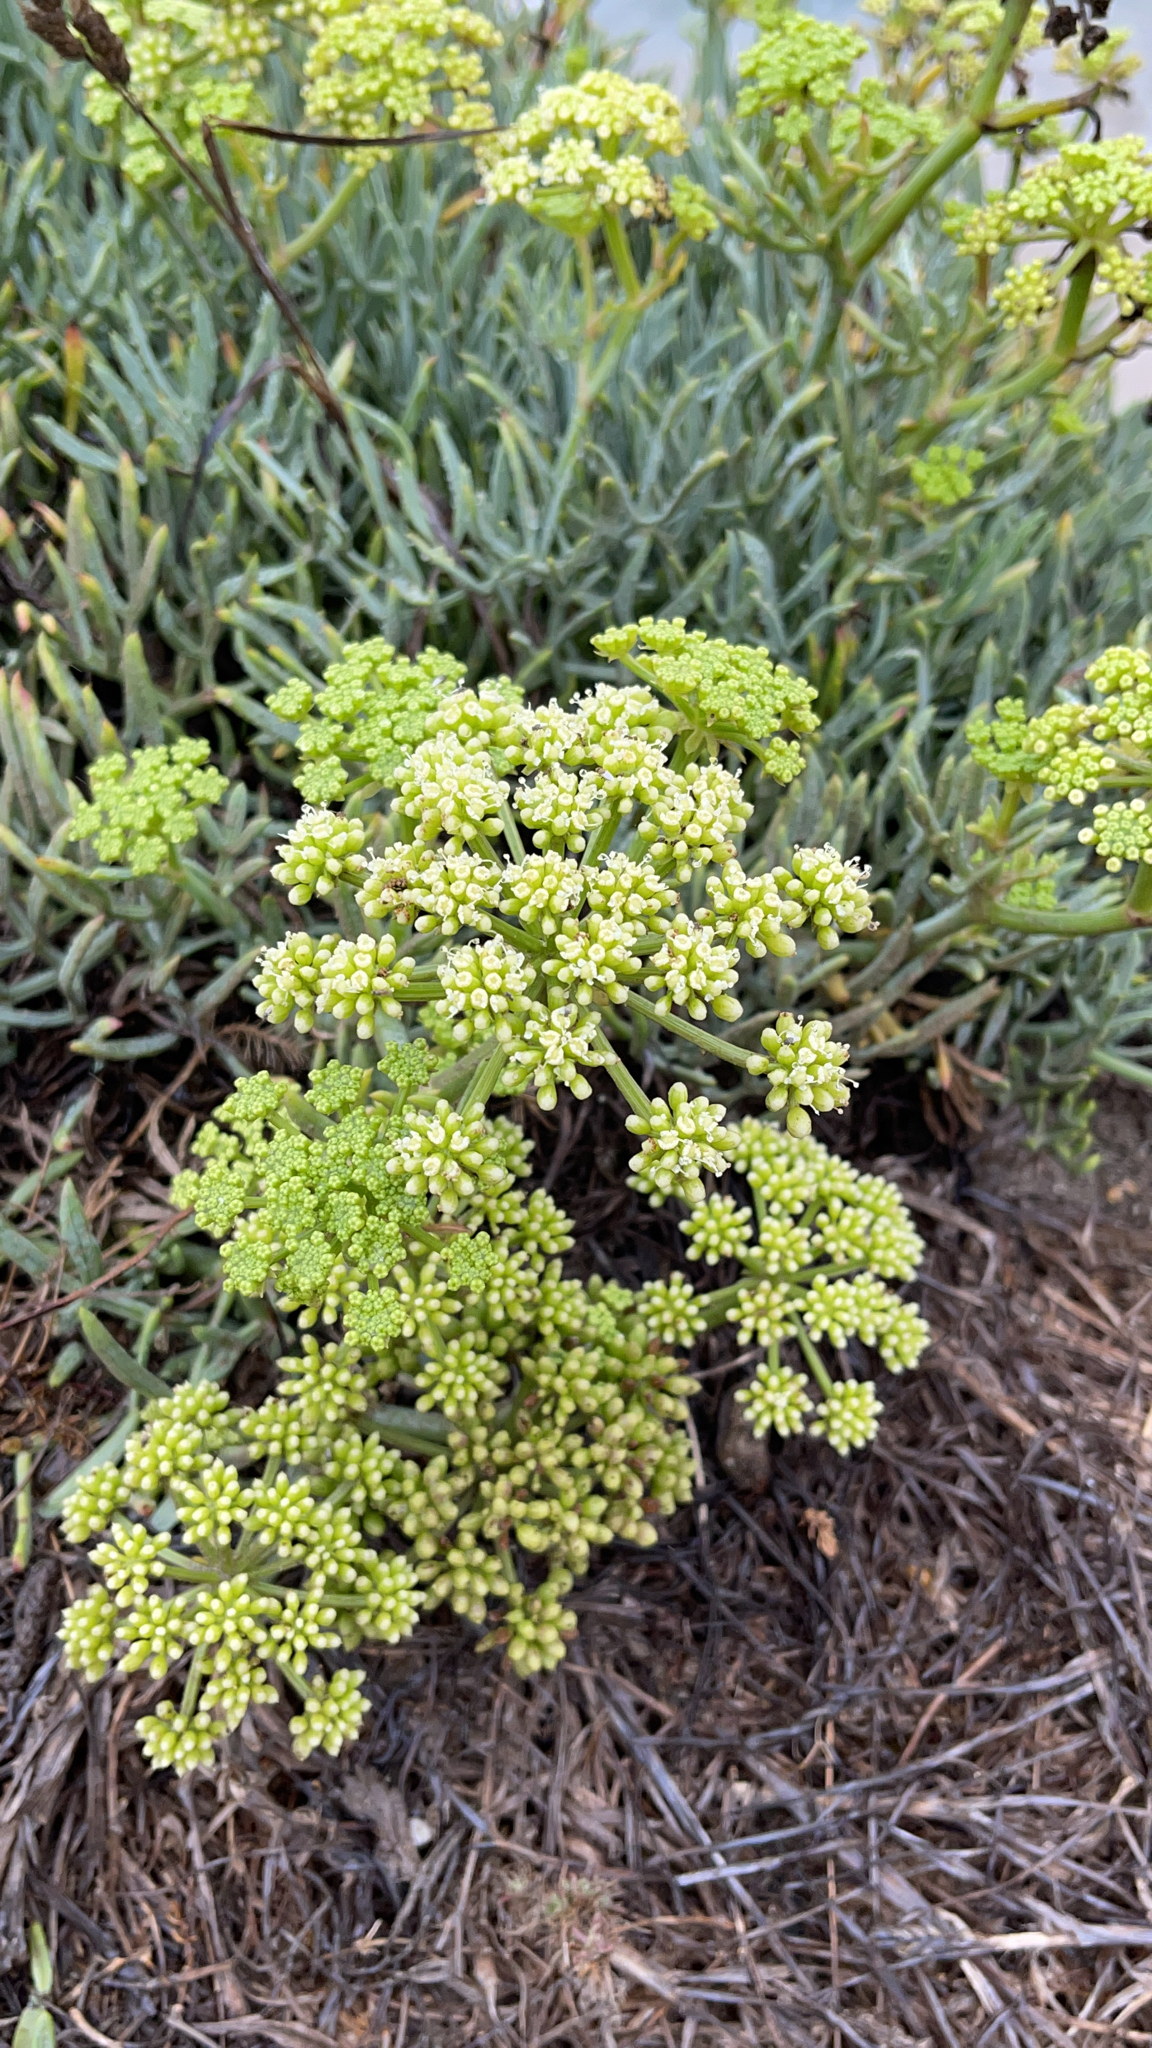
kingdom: Plantae
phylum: Tracheophyta
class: Magnoliopsida
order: Apiales
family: Apiaceae
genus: Crithmum
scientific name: Crithmum maritimum
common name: Rock samphire
